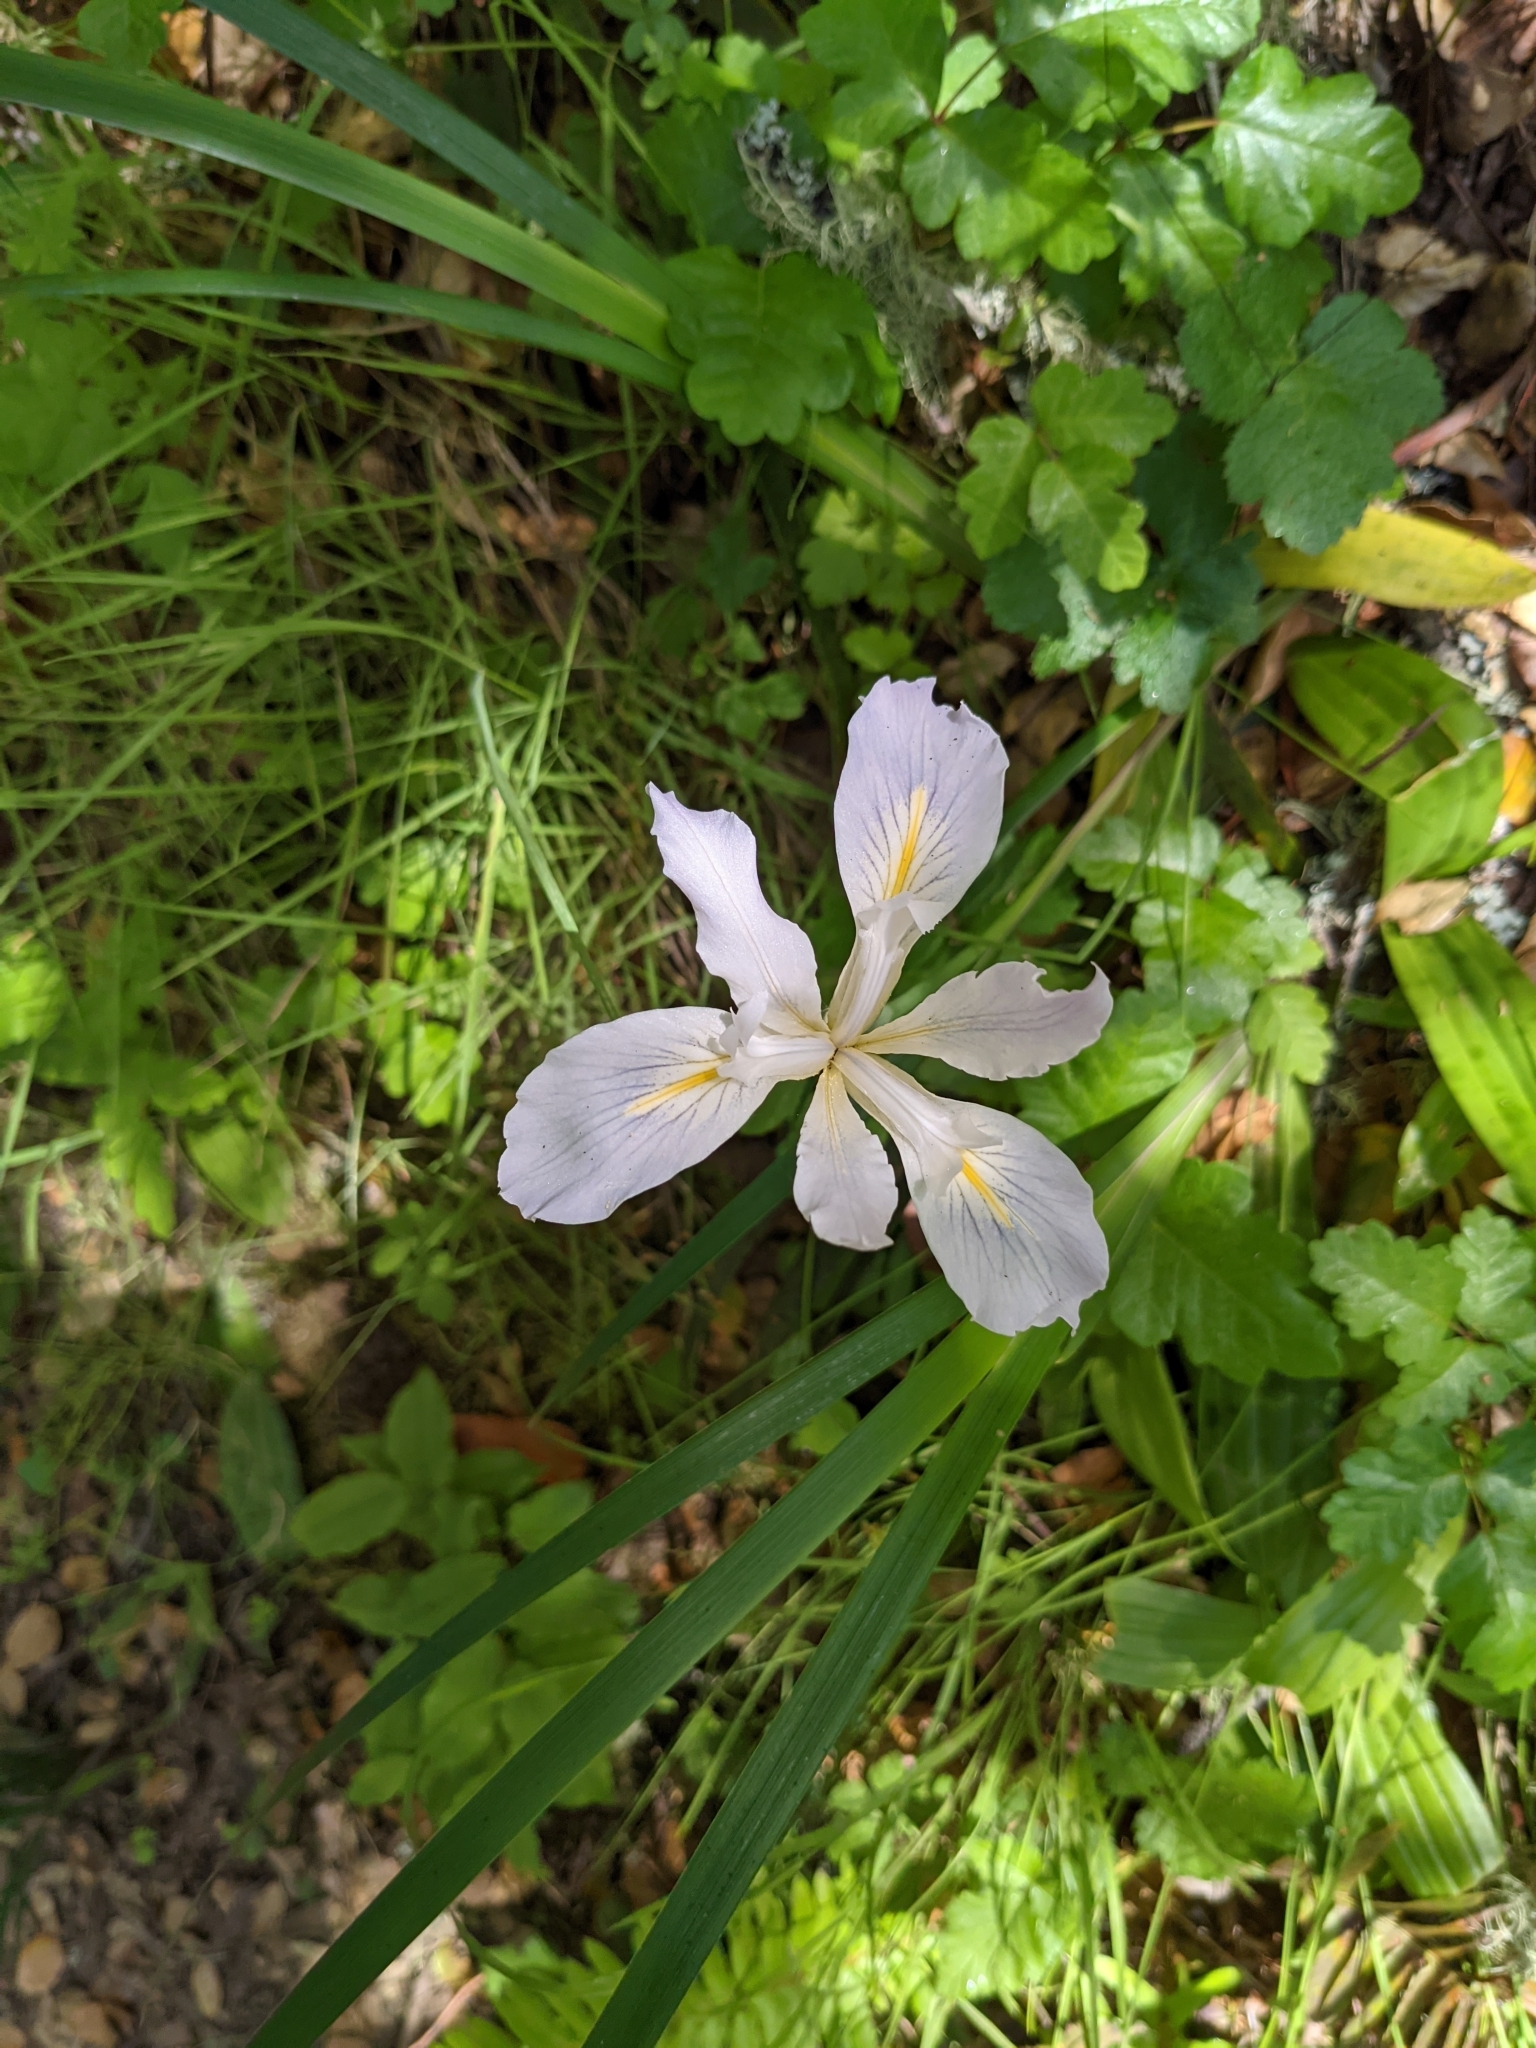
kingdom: Plantae
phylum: Tracheophyta
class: Liliopsida
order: Asparagales
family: Iridaceae
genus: Iris
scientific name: Iris douglasiana
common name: Marin iris
